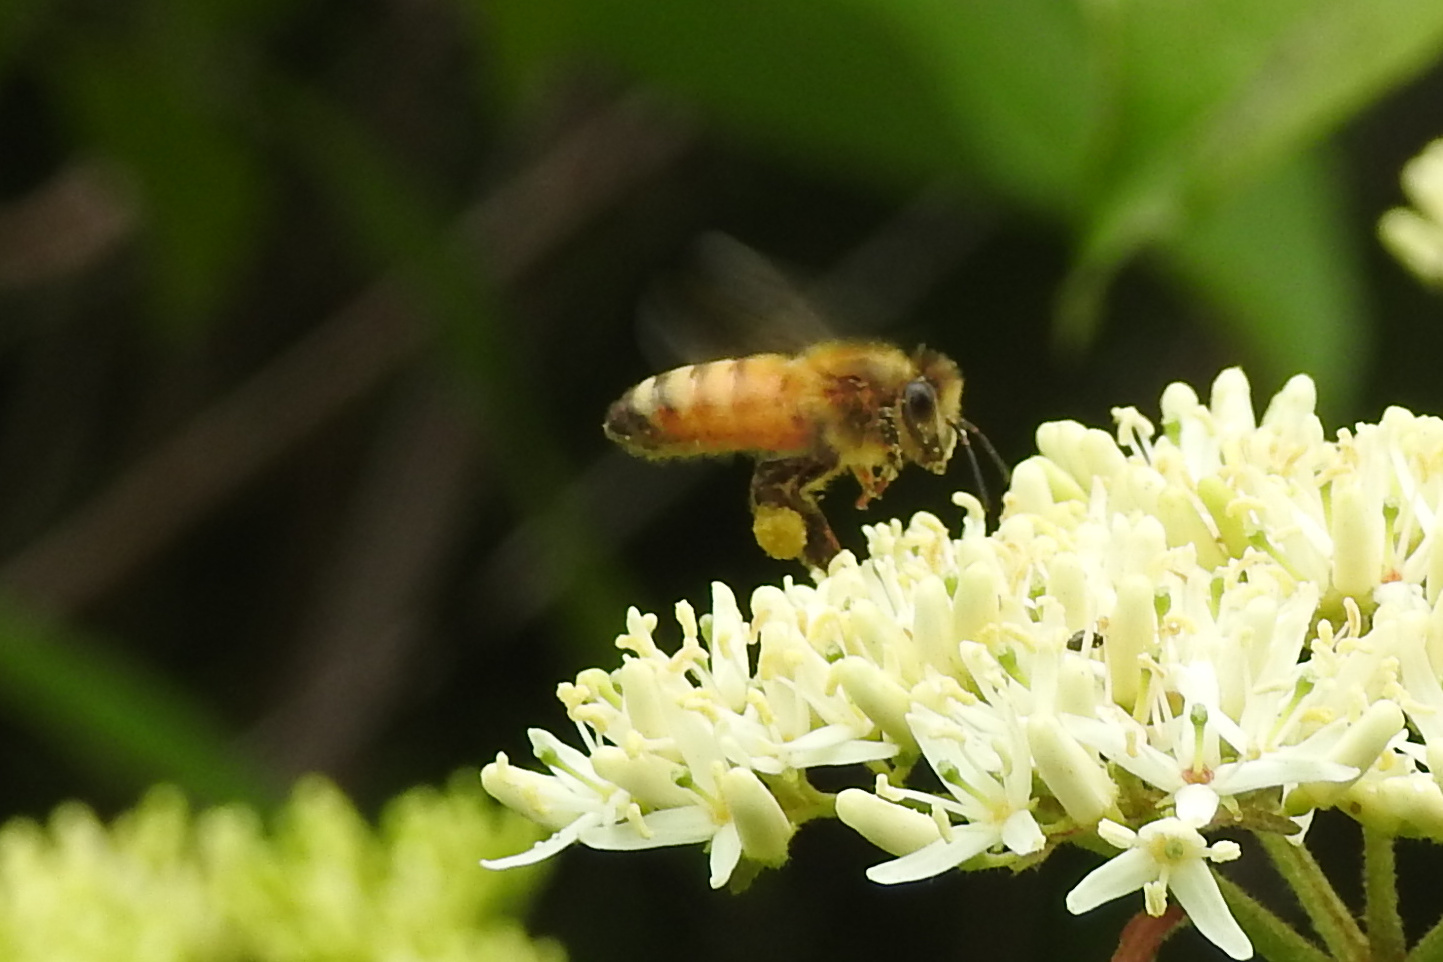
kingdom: Animalia
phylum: Arthropoda
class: Insecta
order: Hymenoptera
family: Apidae
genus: Apis
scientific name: Apis mellifera
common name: Honey bee
